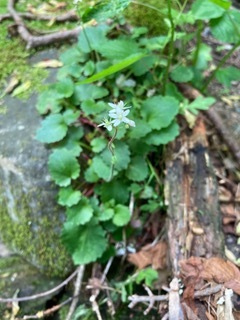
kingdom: Plantae
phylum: Tracheophyta
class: Magnoliopsida
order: Saxifragales
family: Saxifragaceae
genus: Micranthes
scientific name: Micranthes careyana
